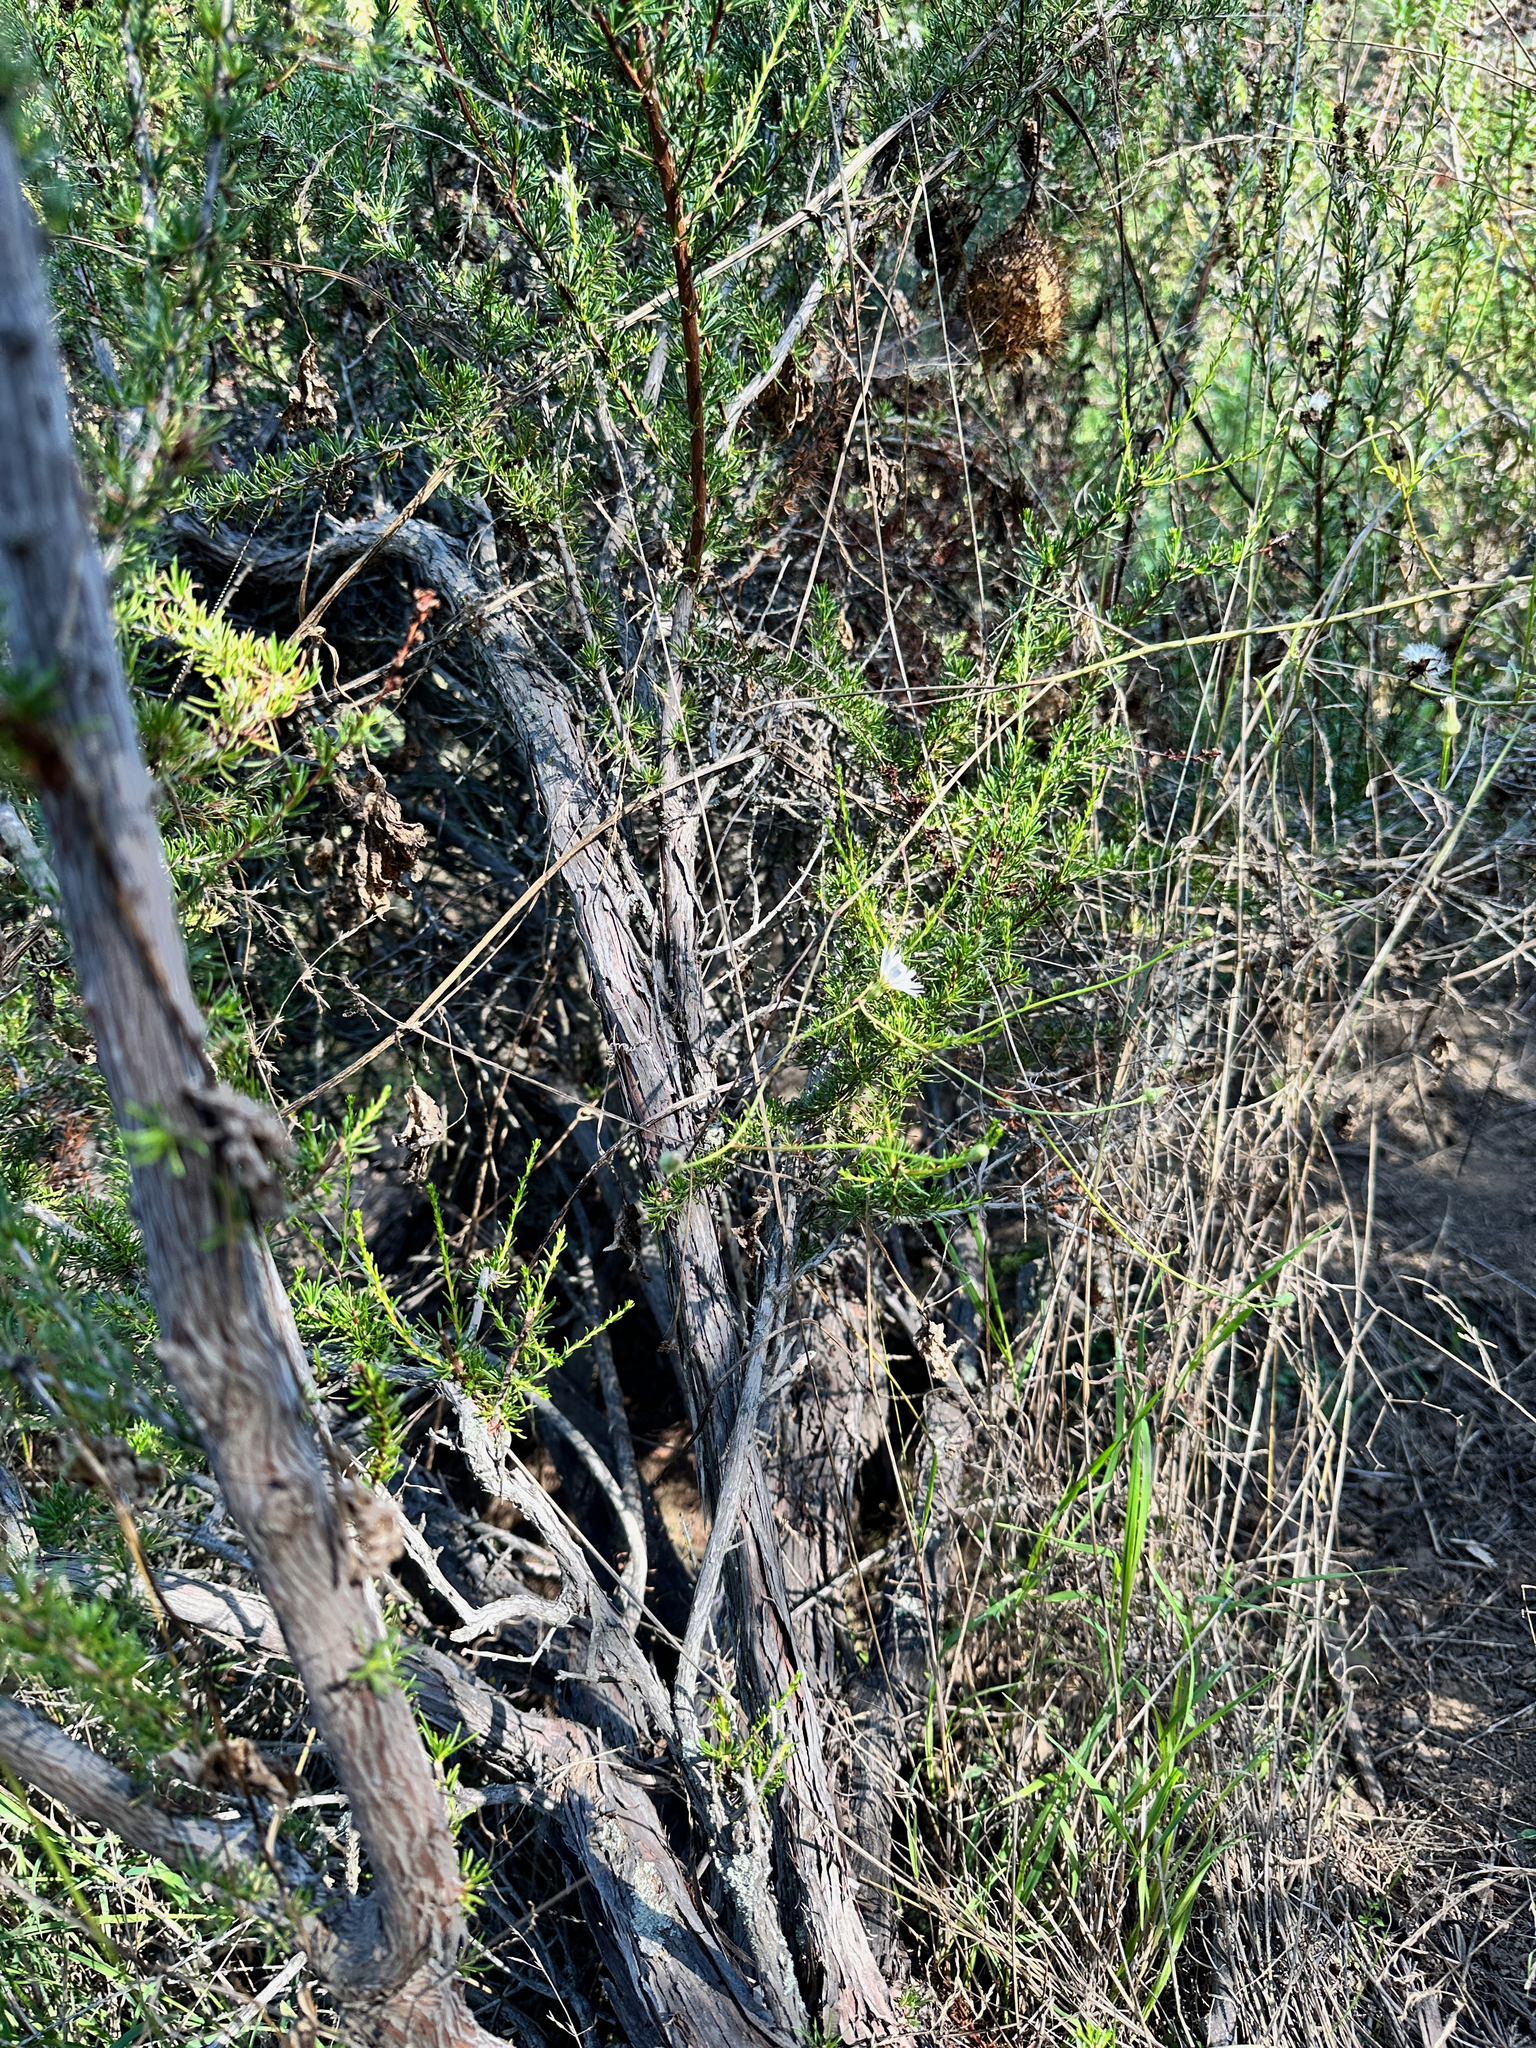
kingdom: Plantae
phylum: Tracheophyta
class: Magnoliopsida
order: Rosales
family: Rosaceae
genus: Adenostoma
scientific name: Adenostoma fasciculatum
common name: Chamise
